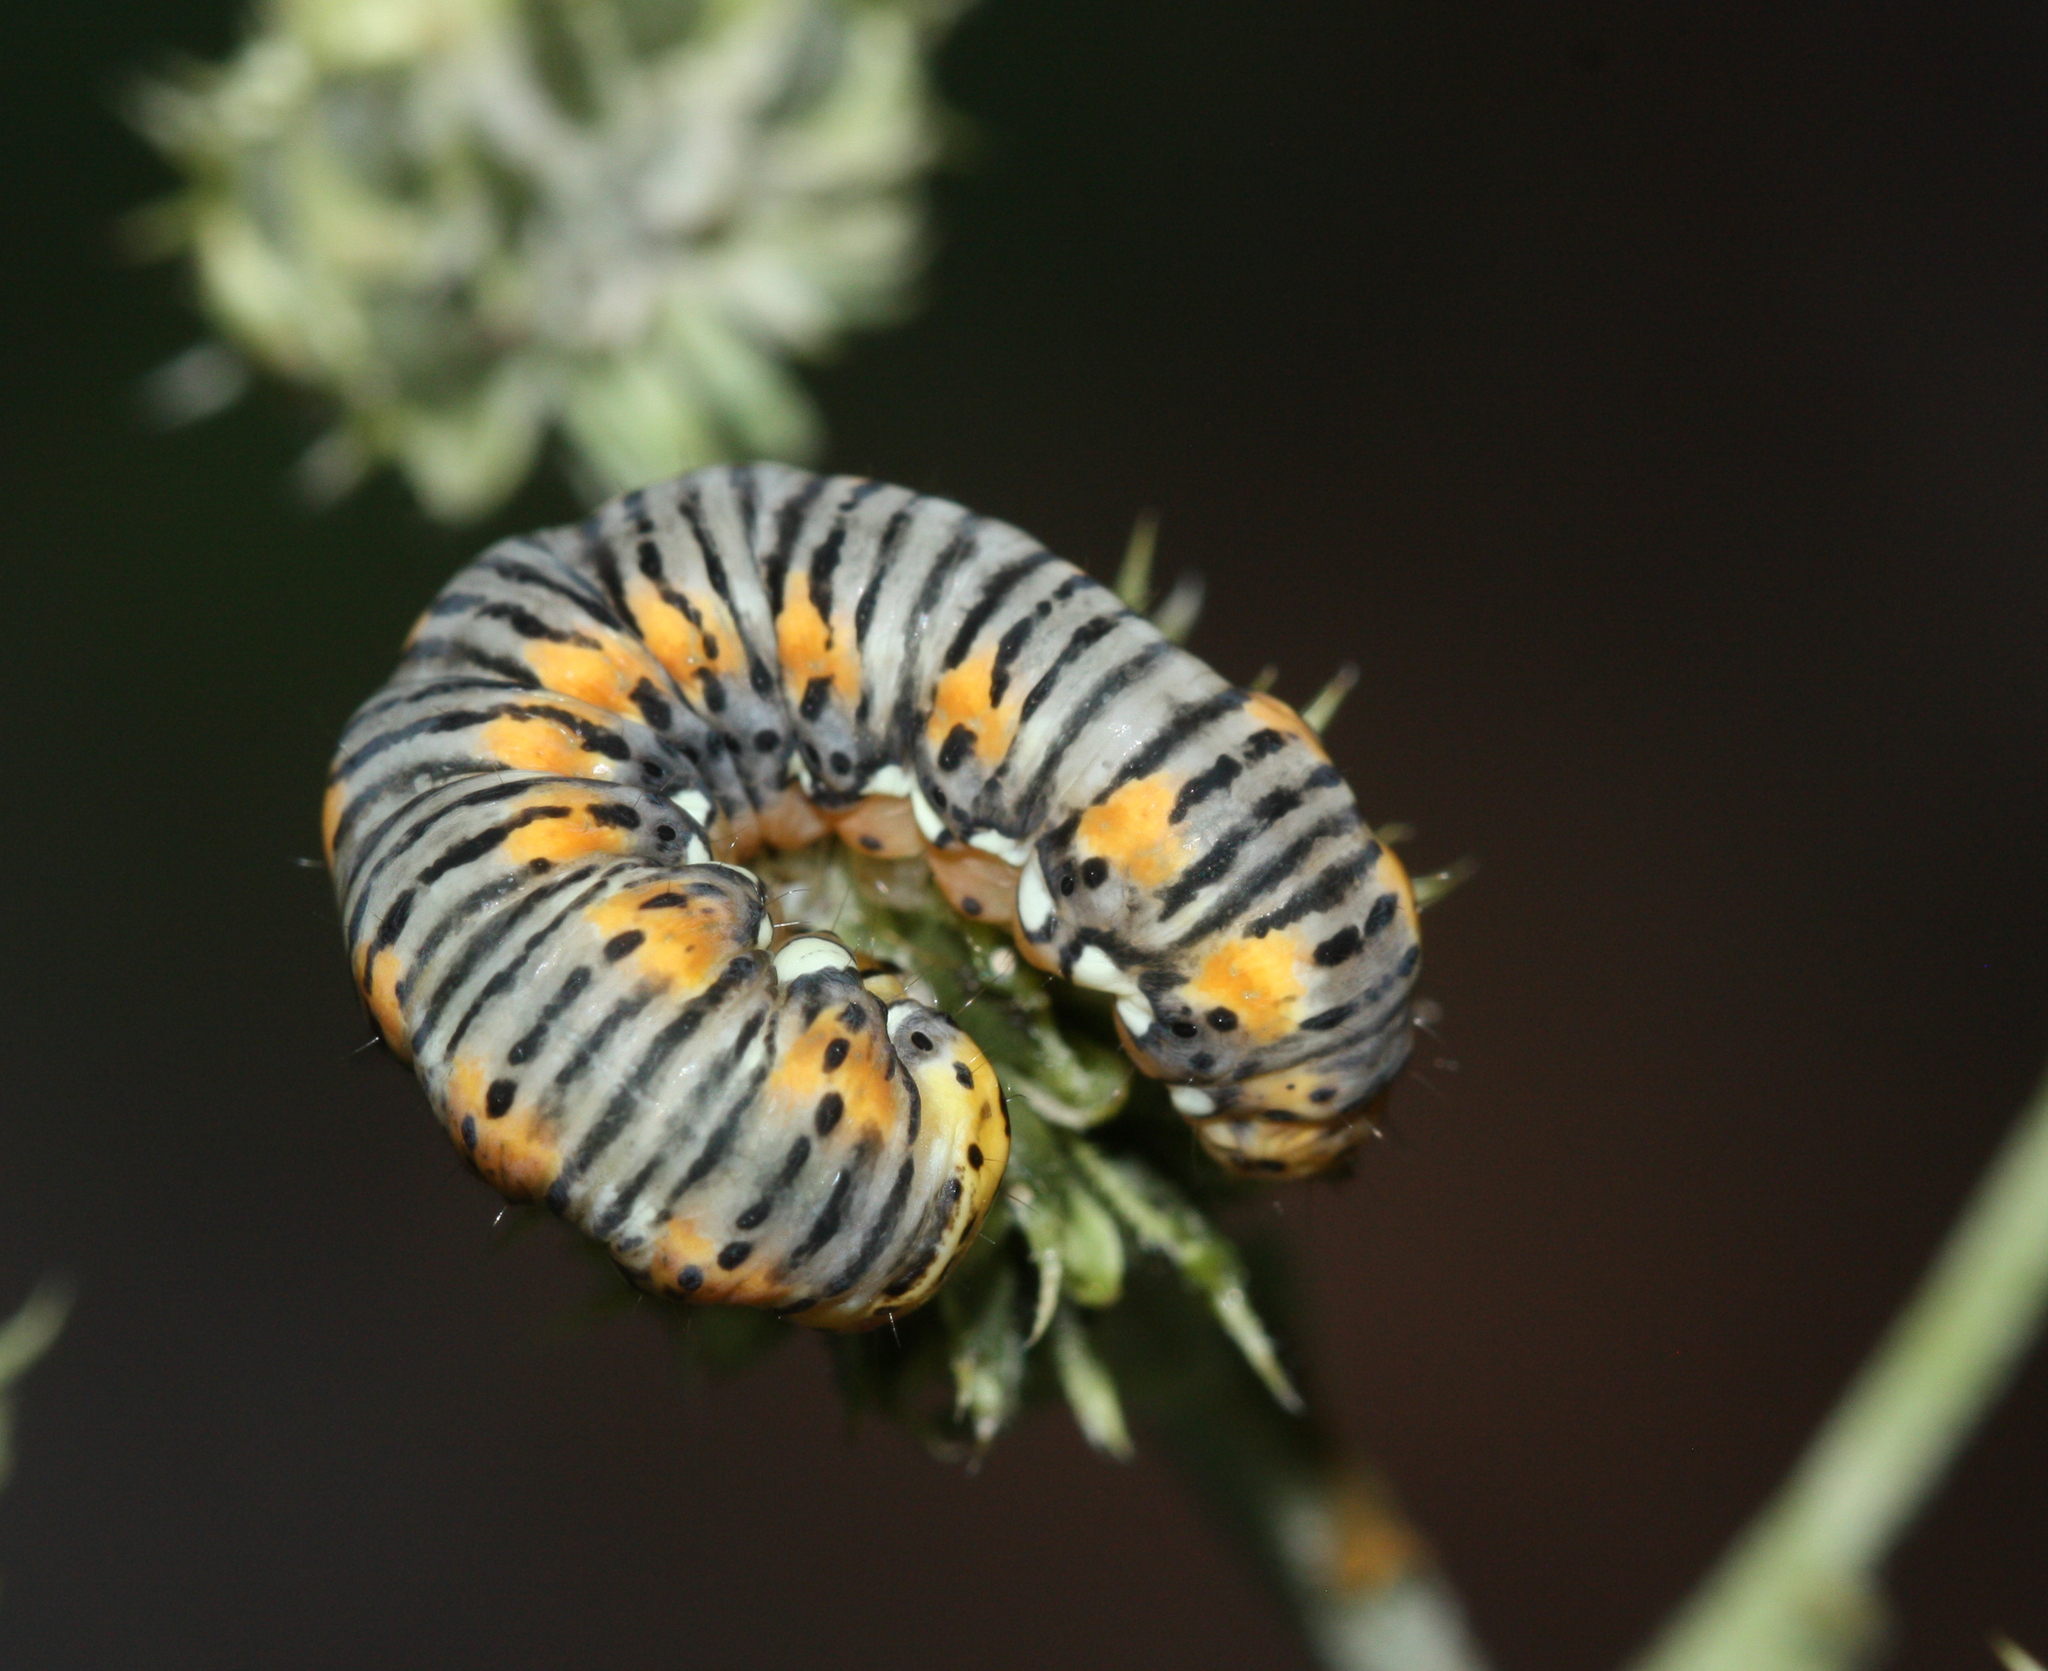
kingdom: Animalia
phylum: Arthropoda
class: Insecta
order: Lepidoptera
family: Noctuidae
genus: Basilodes
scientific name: Basilodes pepita
